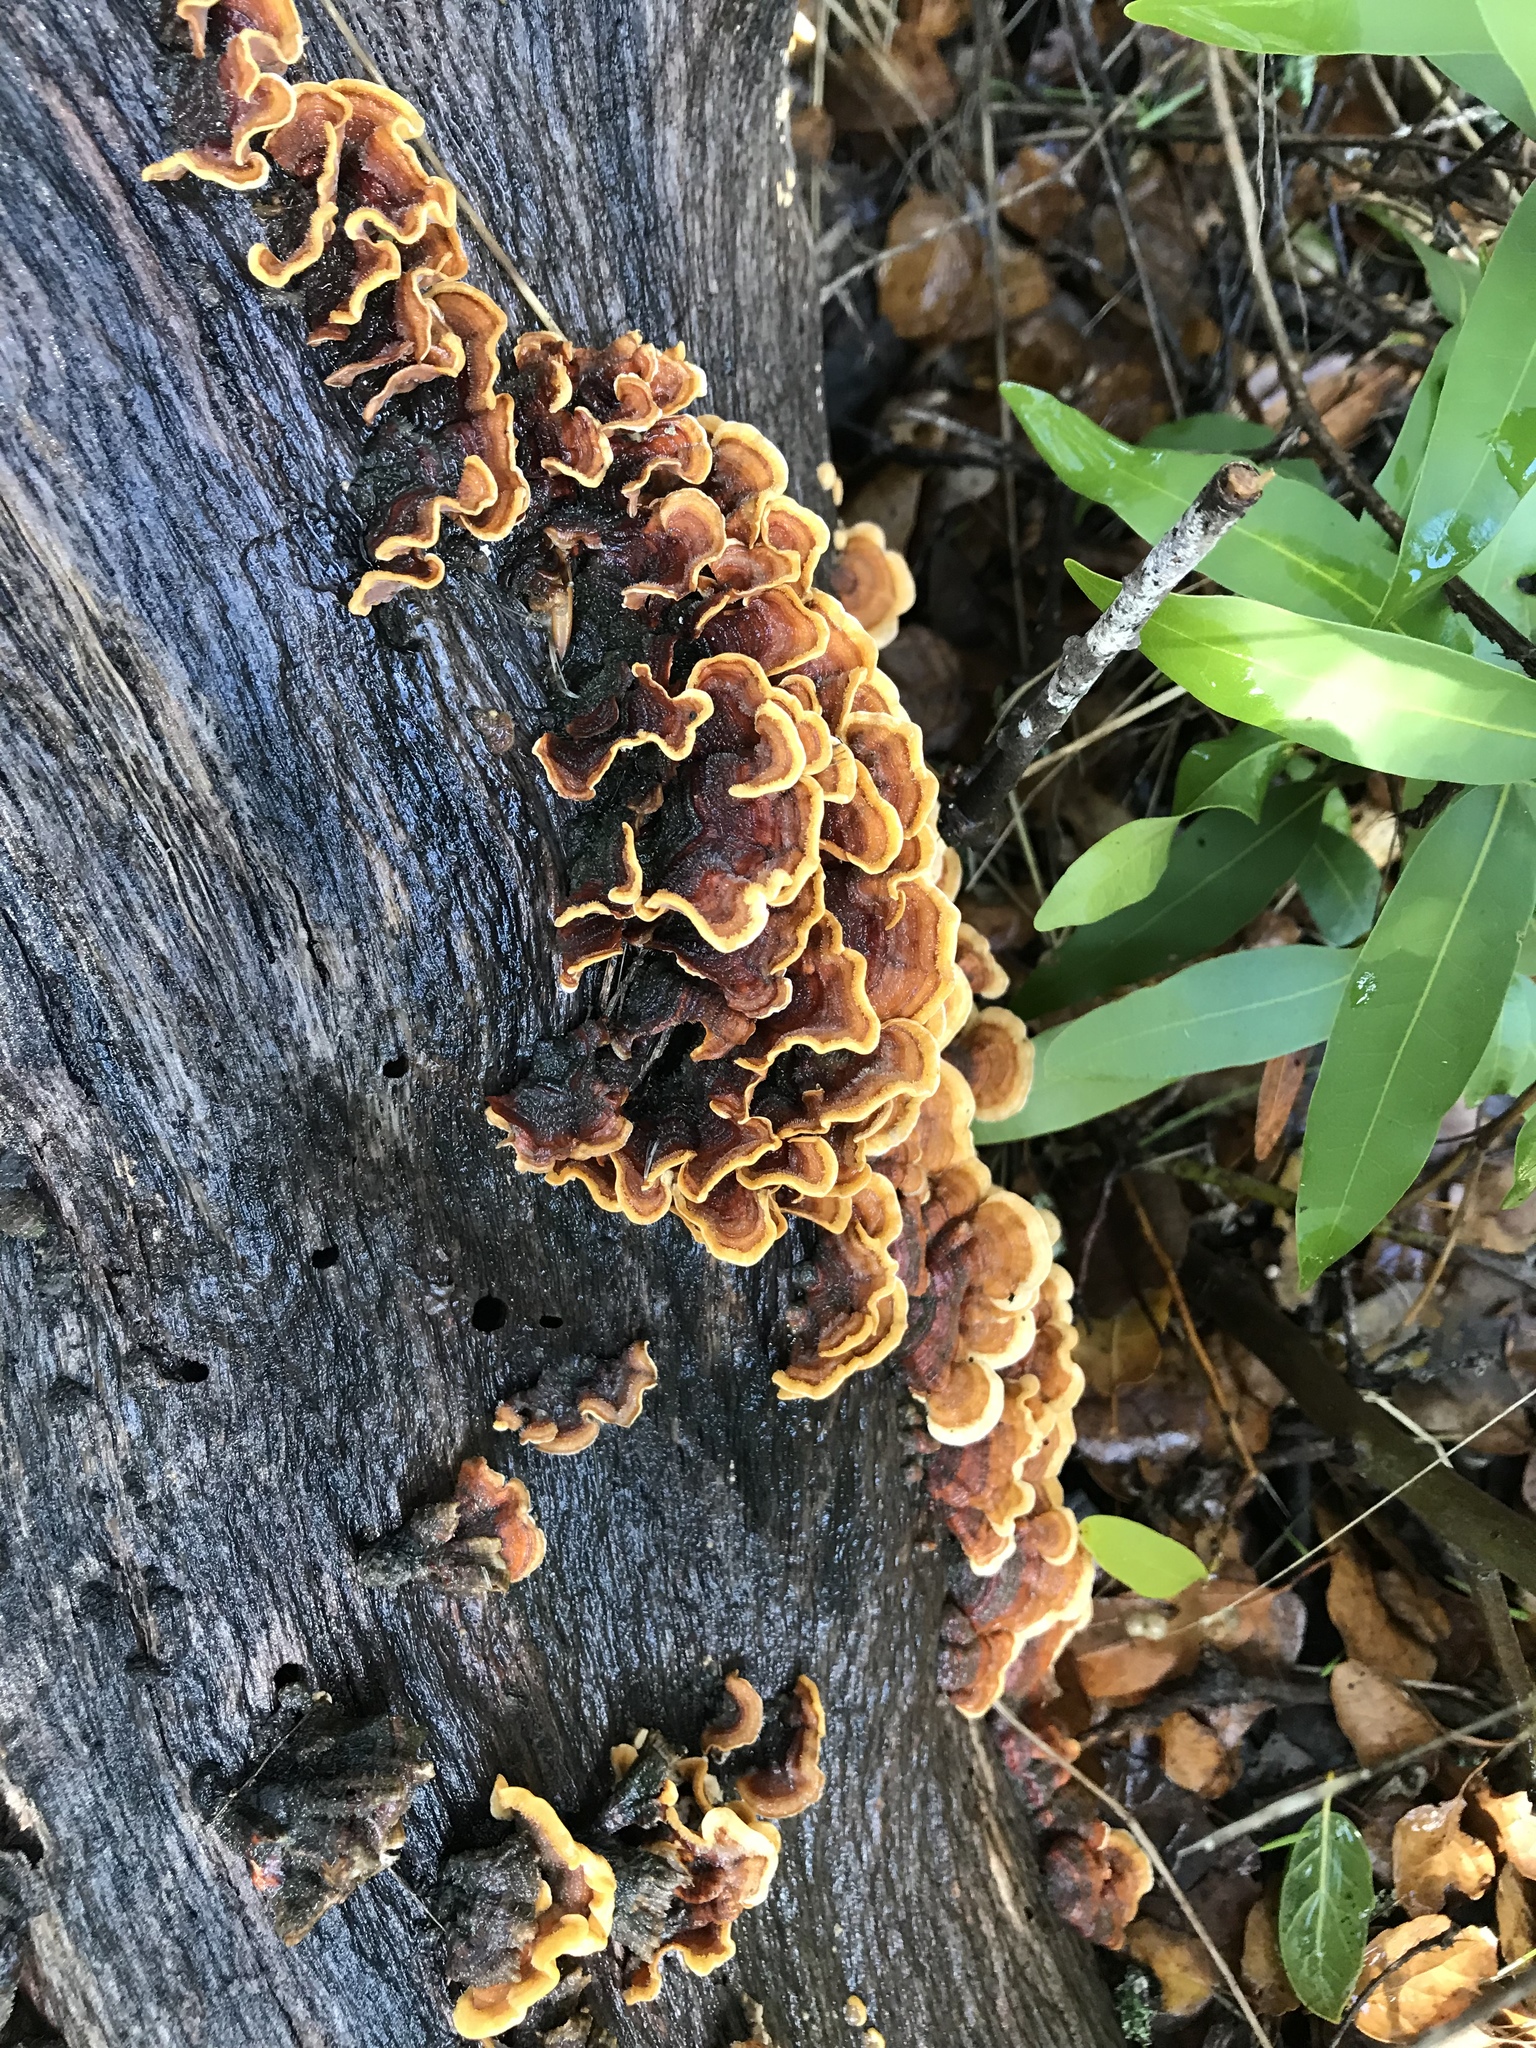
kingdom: Fungi
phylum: Basidiomycota
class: Agaricomycetes
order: Russulales
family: Stereaceae
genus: Stereum
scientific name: Stereum hirsutum
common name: Hairy curtain crust
